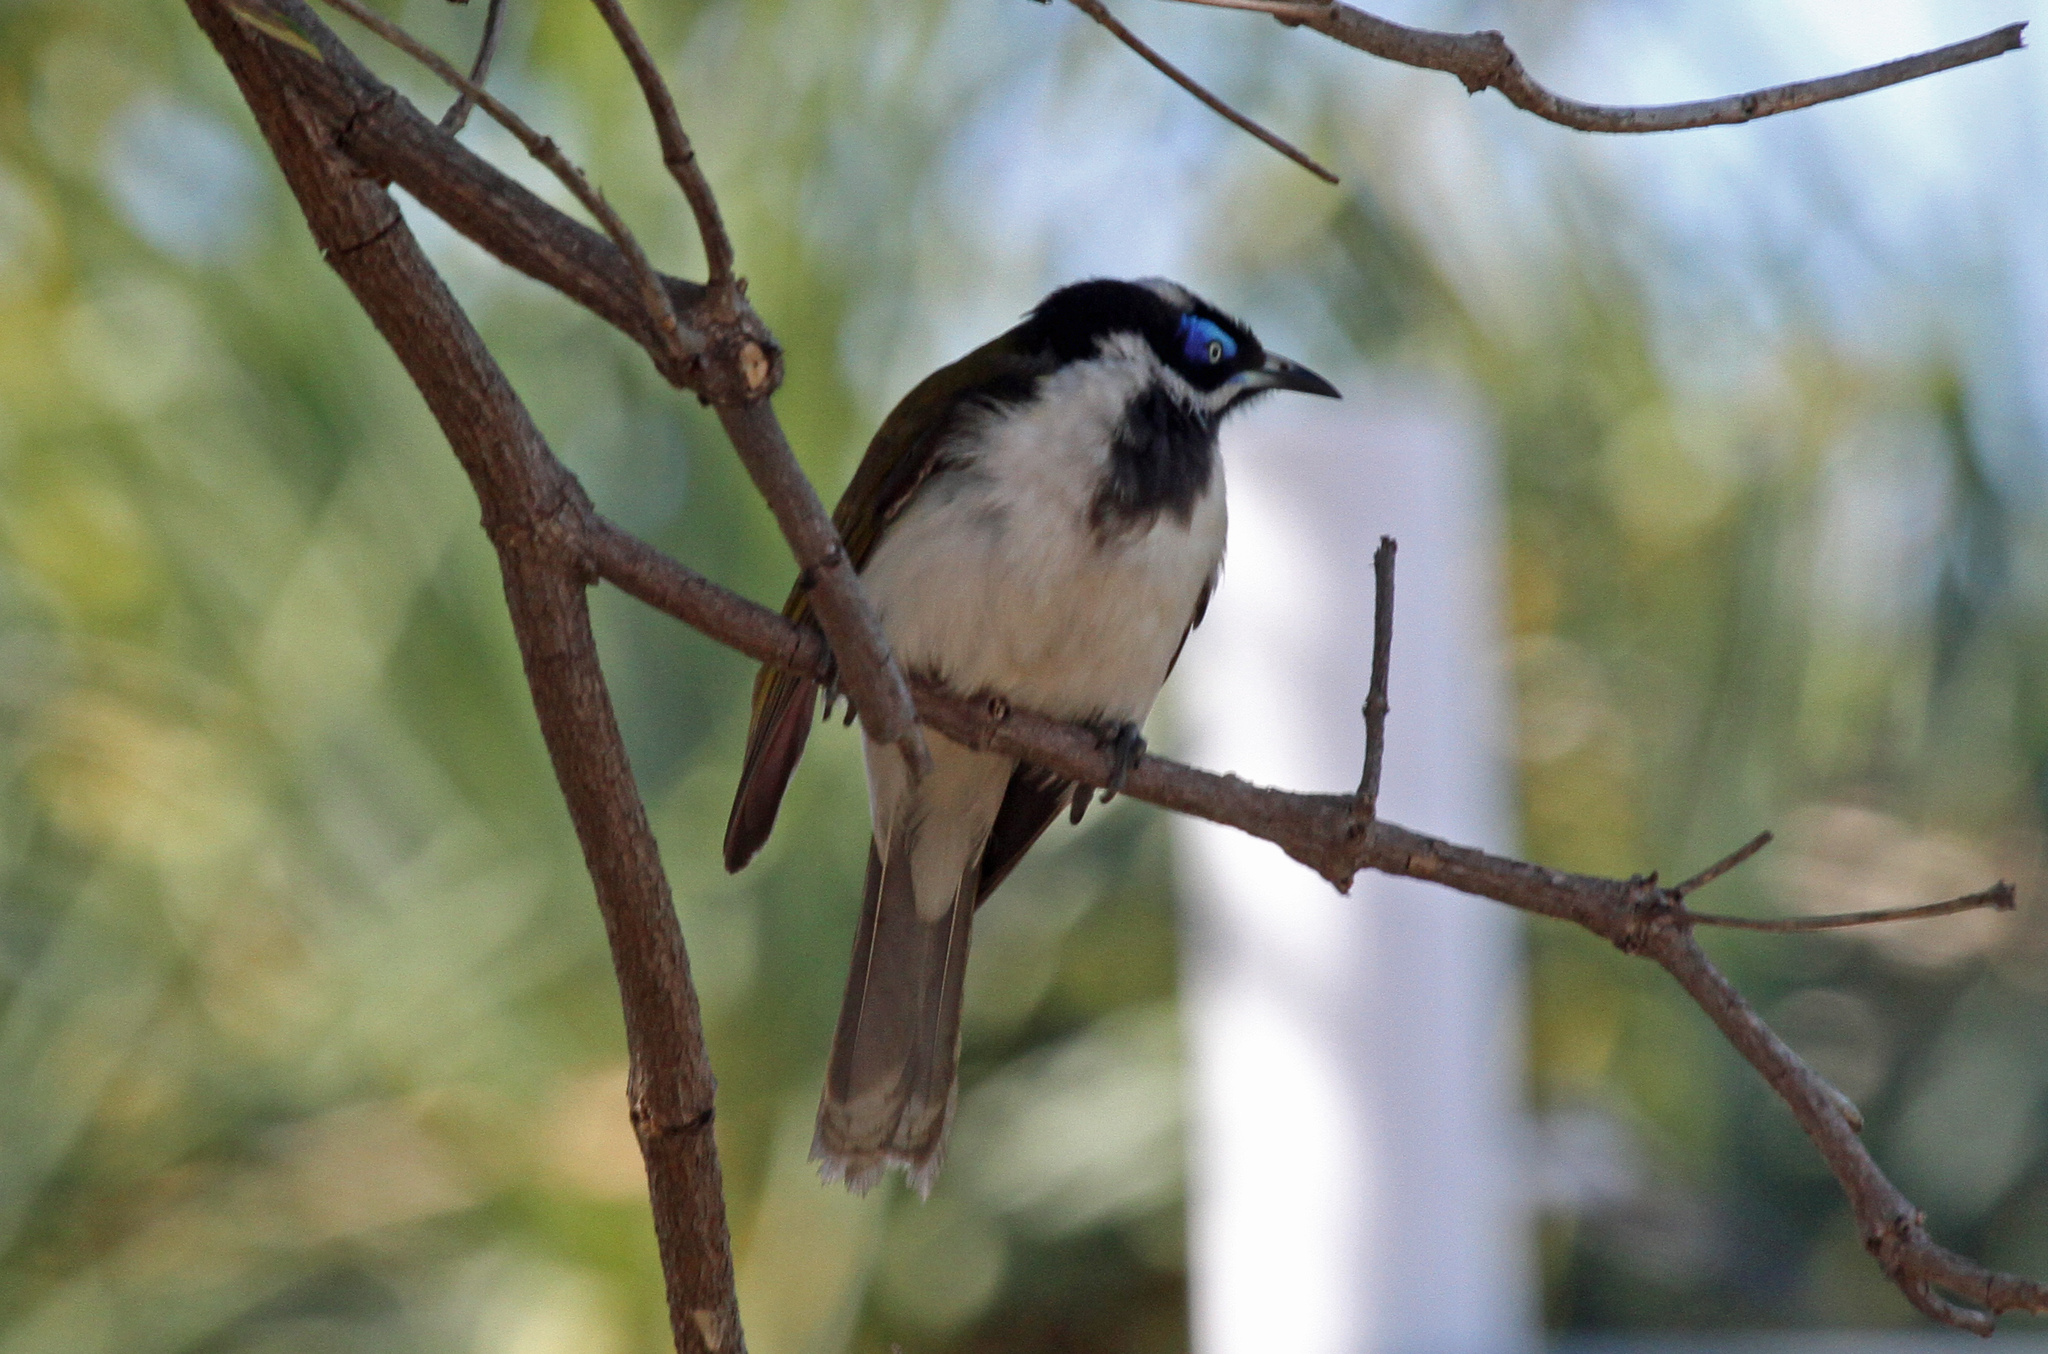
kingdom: Animalia
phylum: Chordata
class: Aves
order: Passeriformes
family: Meliphagidae
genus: Entomyzon
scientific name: Entomyzon cyanotis
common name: Blue-faced honeyeater
